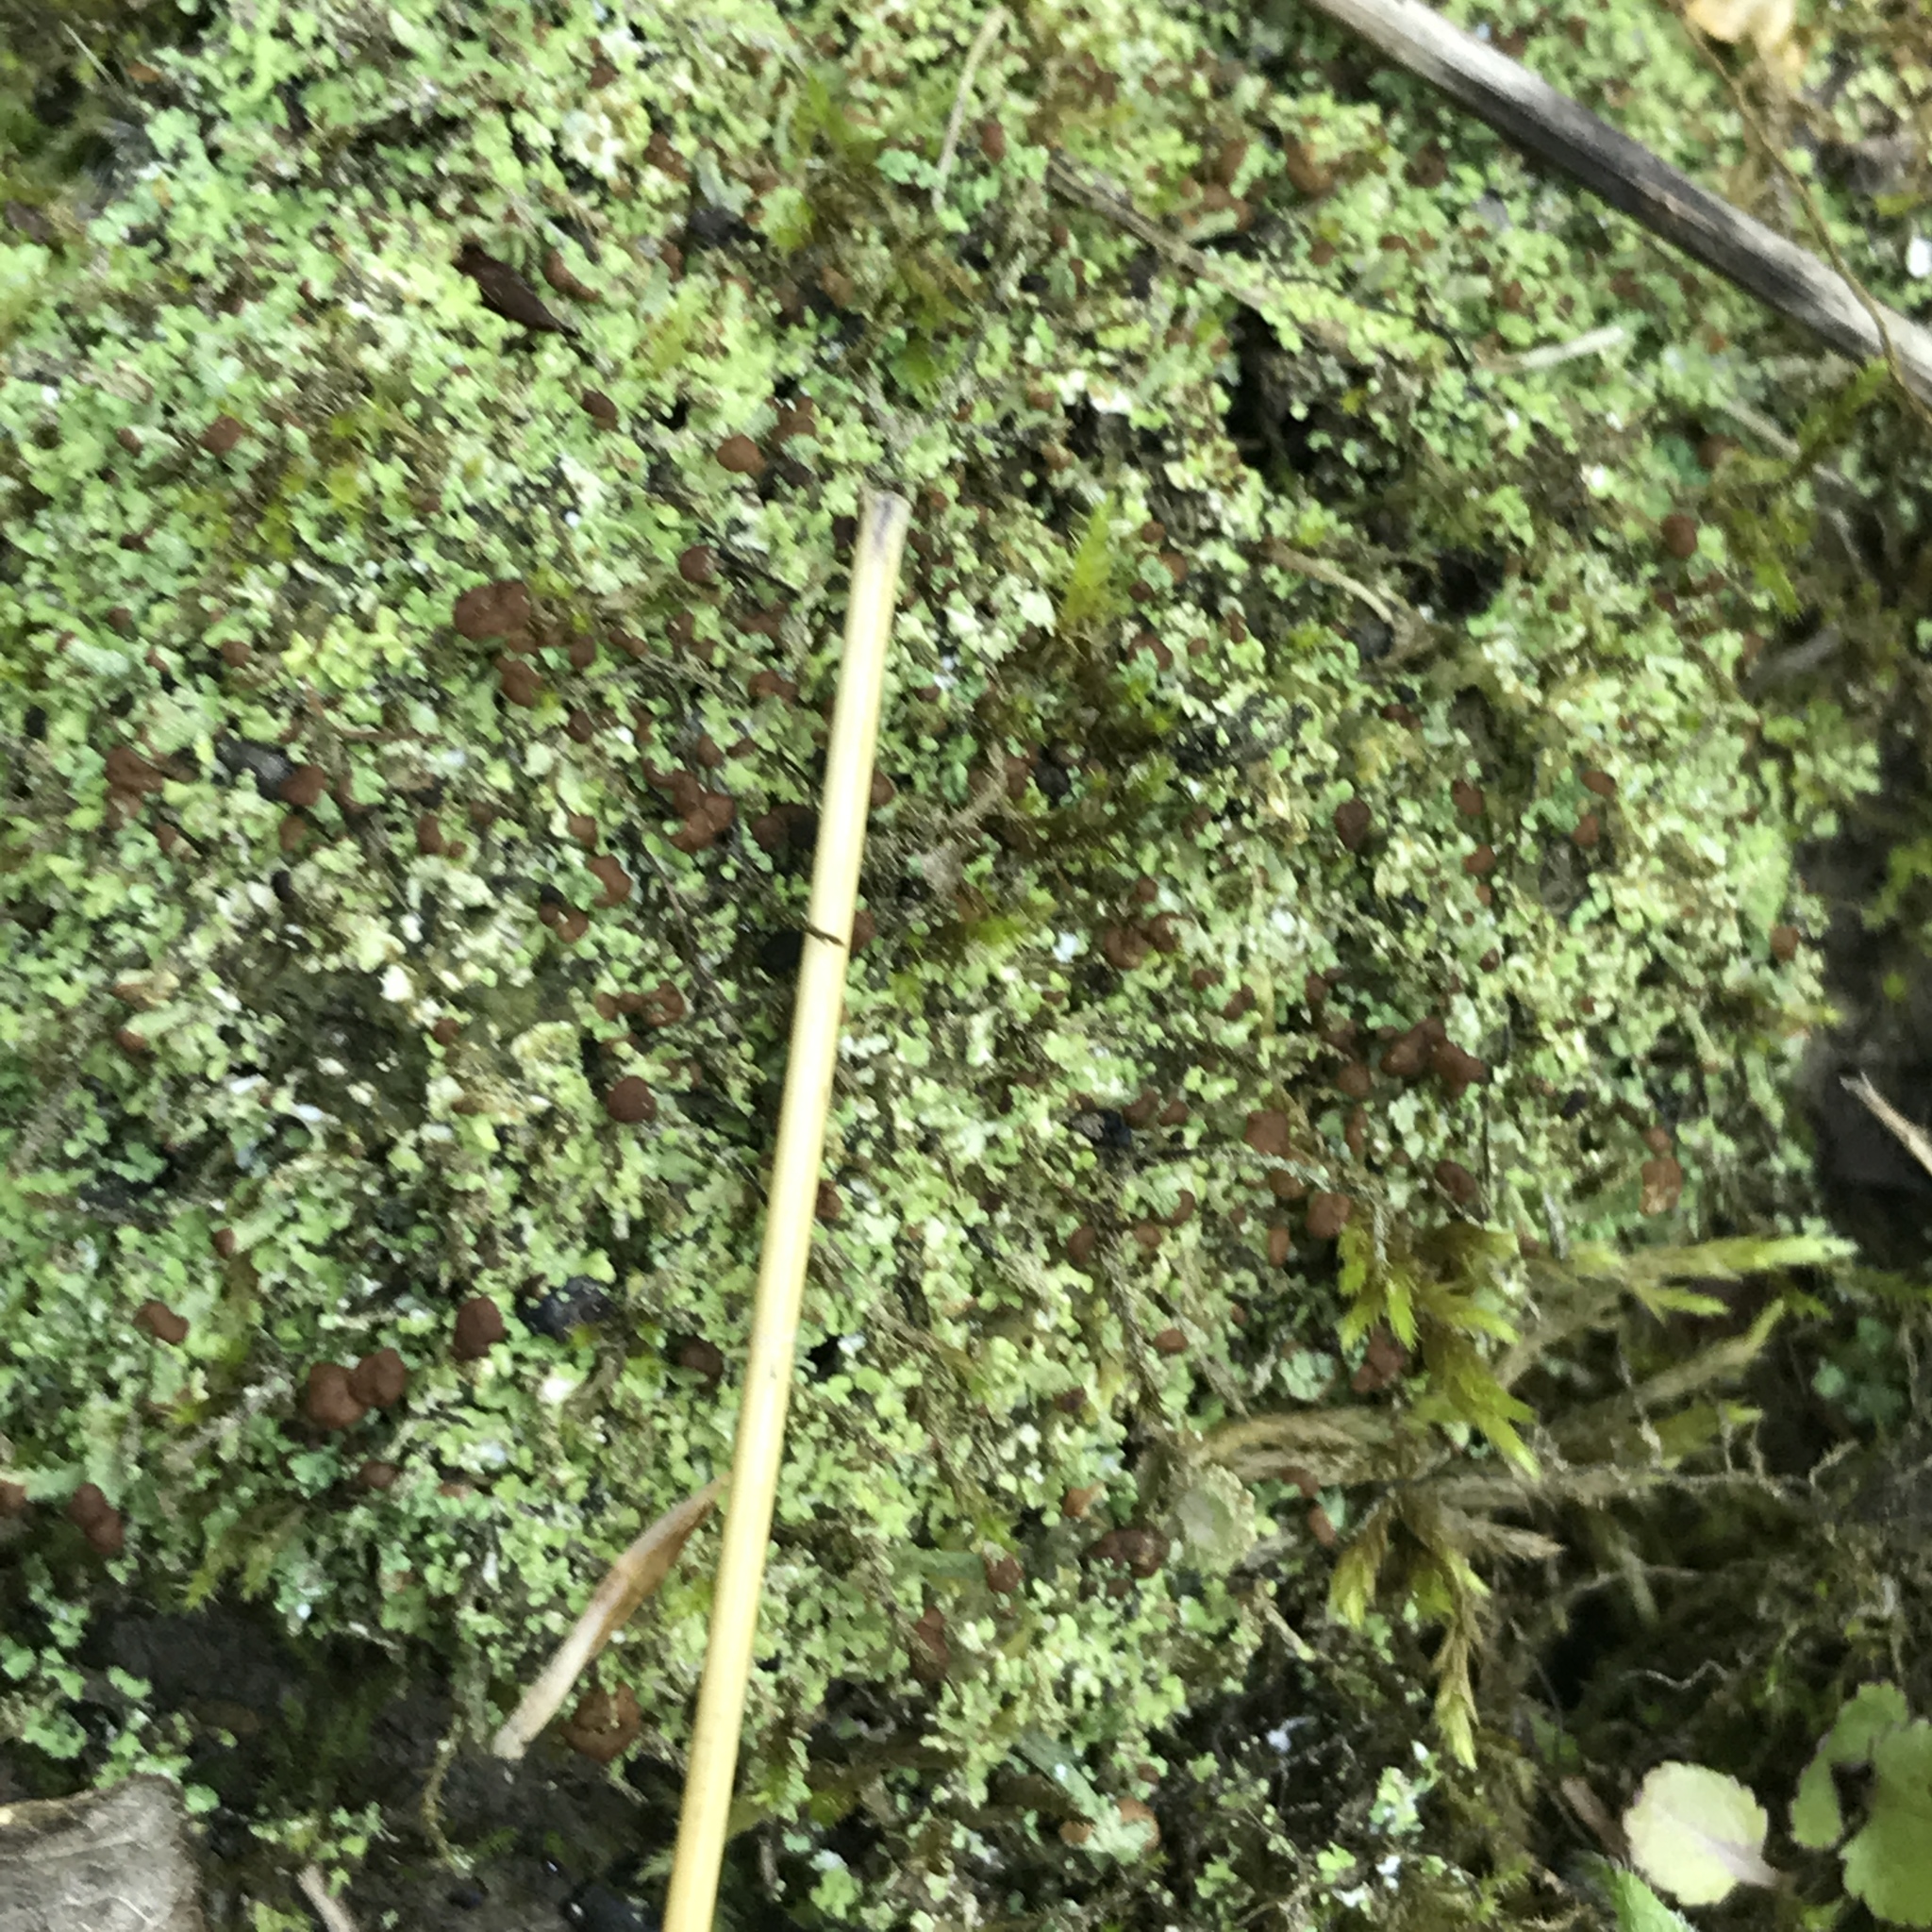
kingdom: Fungi
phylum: Ascomycota
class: Lecanoromycetes
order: Lecanorales
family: Cladoniaceae
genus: Cladonia
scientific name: Cladonia caespiticia
